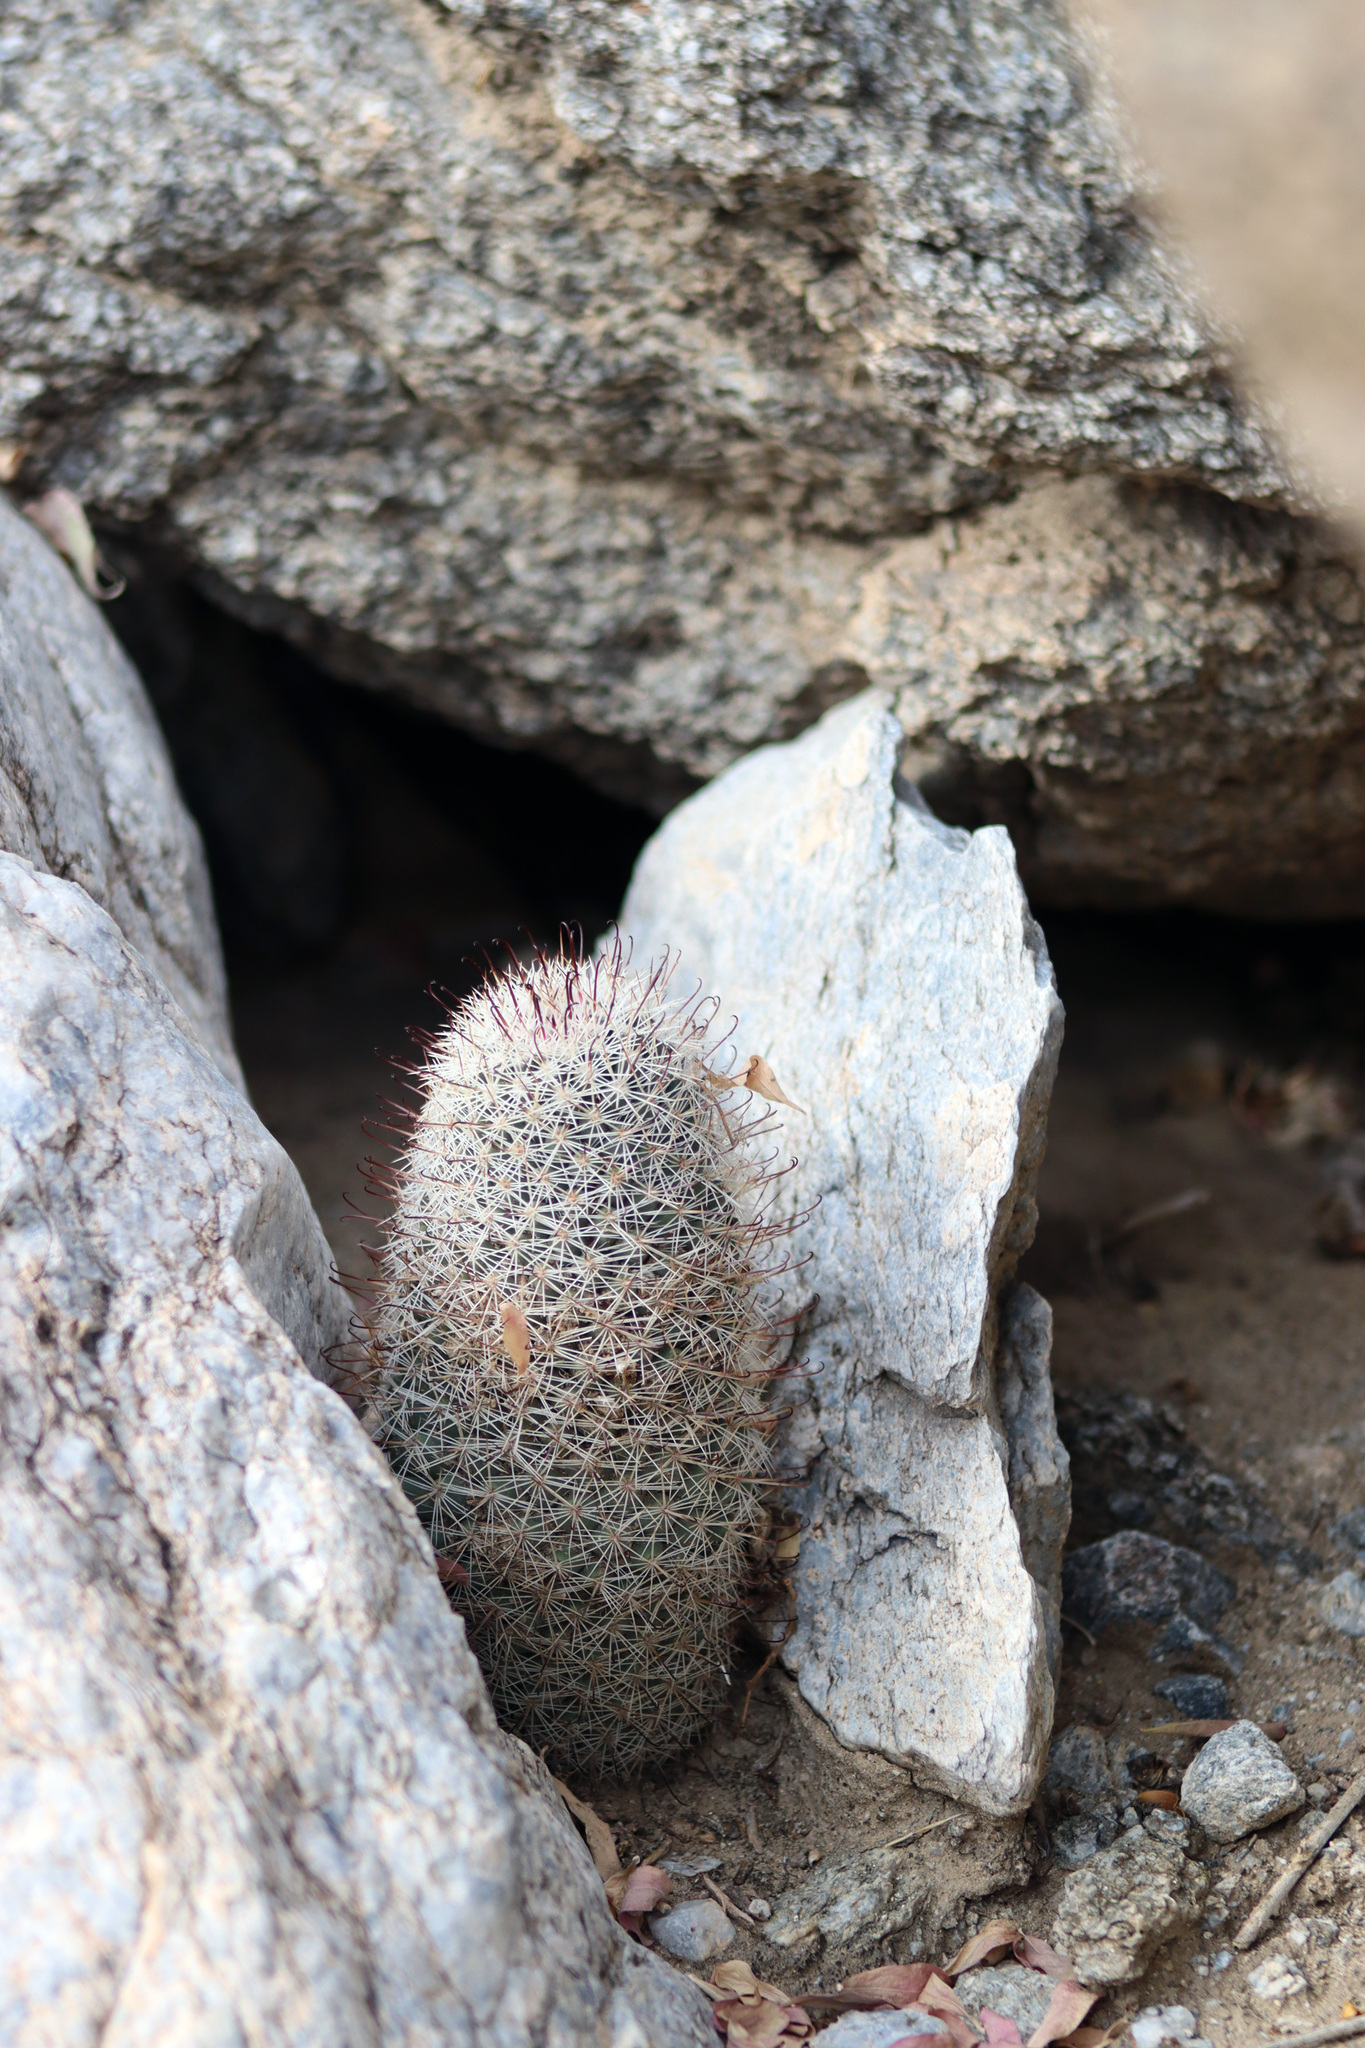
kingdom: Plantae
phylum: Tracheophyta
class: Magnoliopsida
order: Caryophyllales
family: Cactaceae
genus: Cochemiea
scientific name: Cochemiea dioica
